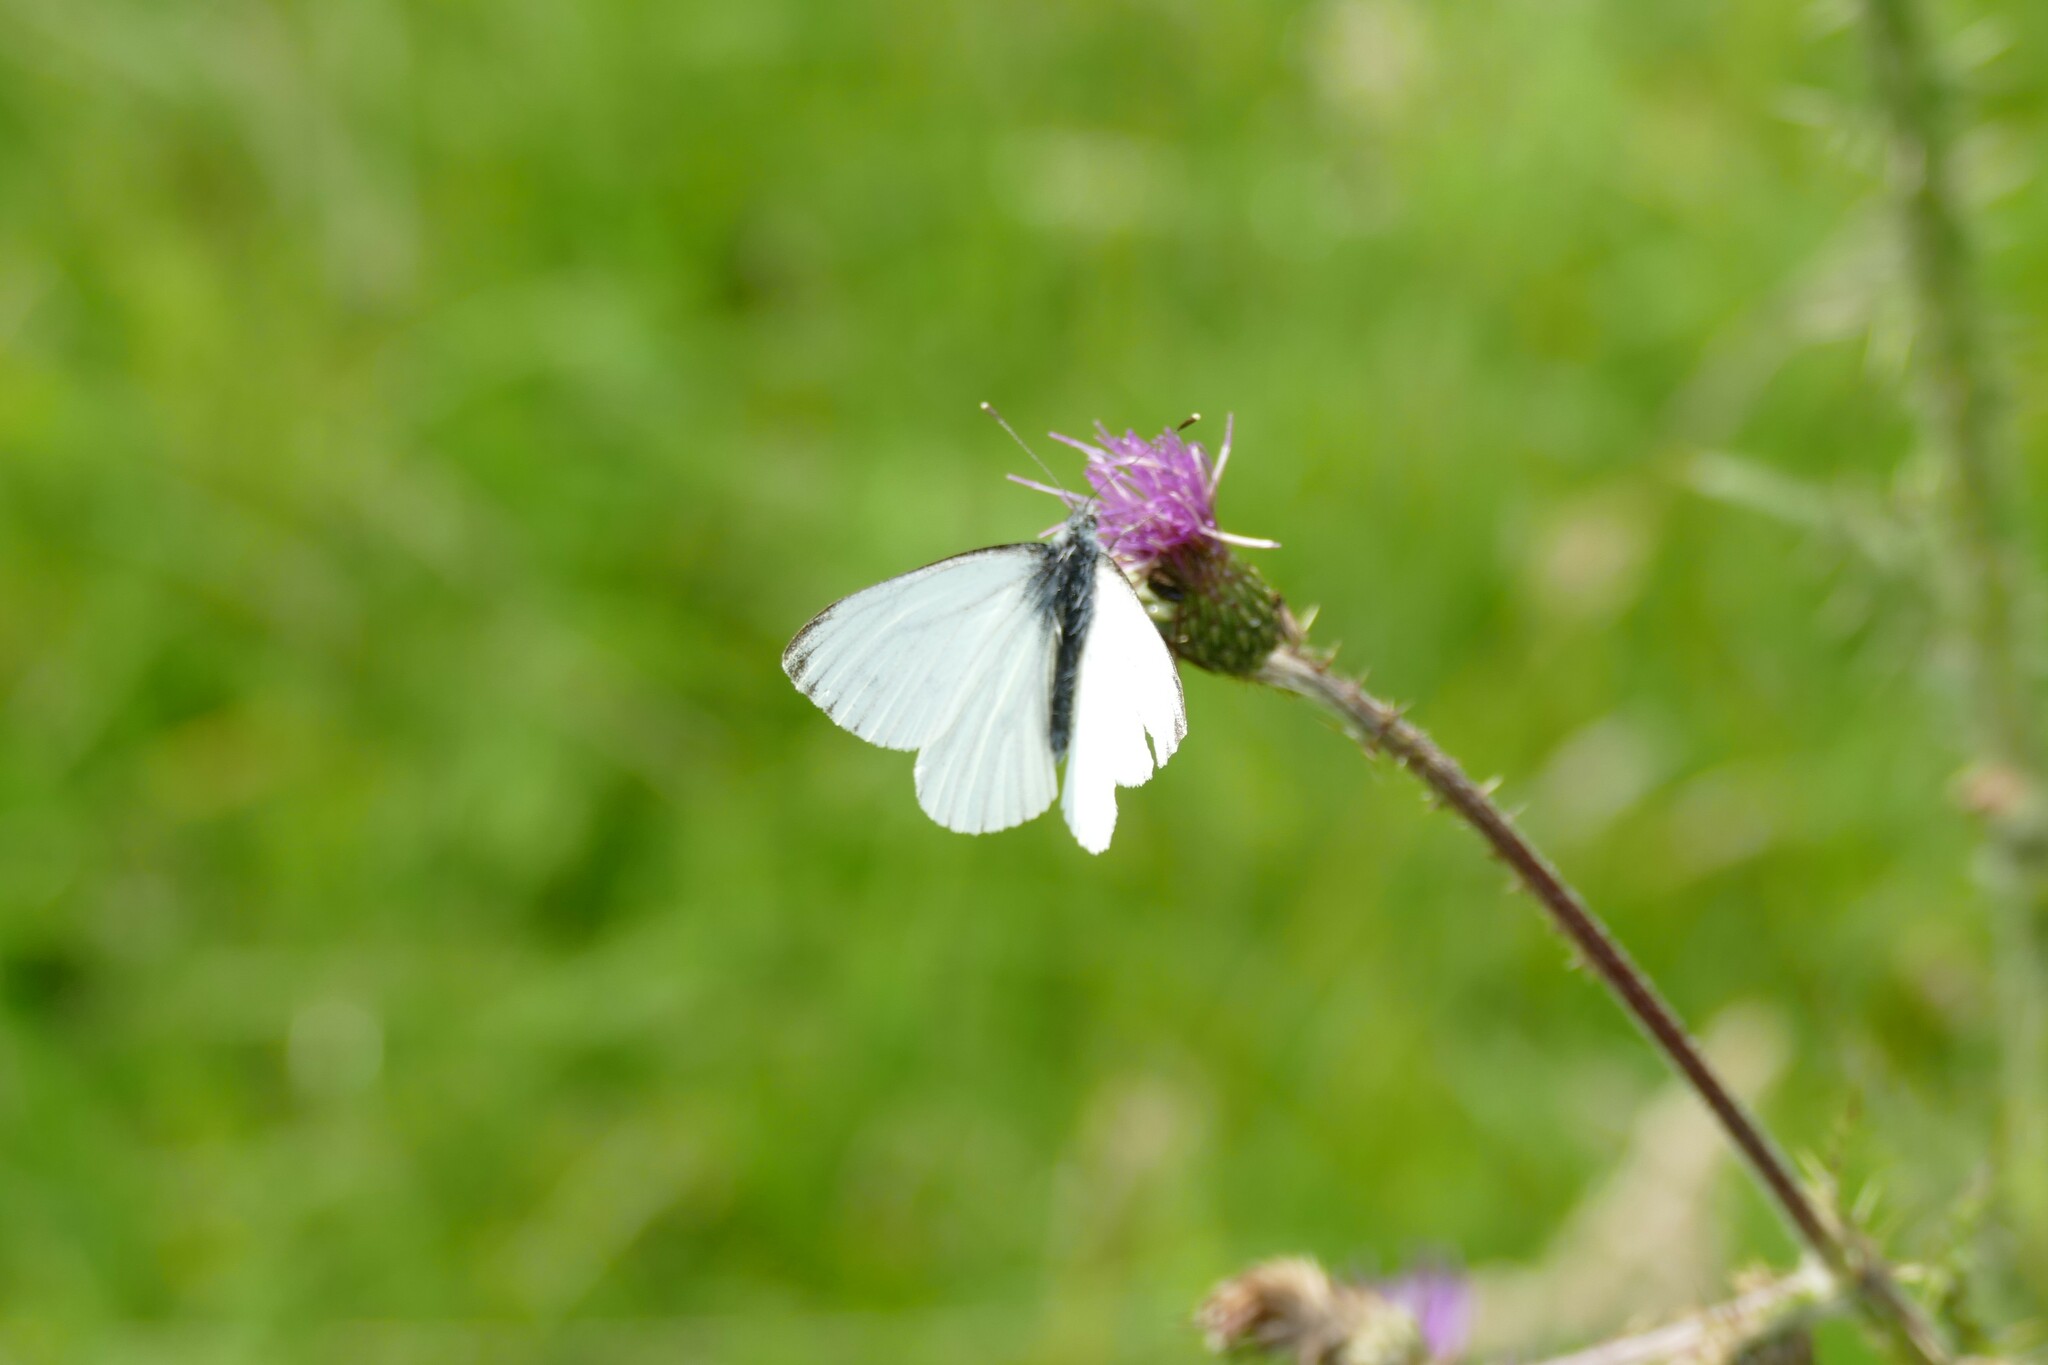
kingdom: Animalia
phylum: Arthropoda
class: Insecta
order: Lepidoptera
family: Pieridae
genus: Pieris
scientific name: Pieris napi
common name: Green-veined white
